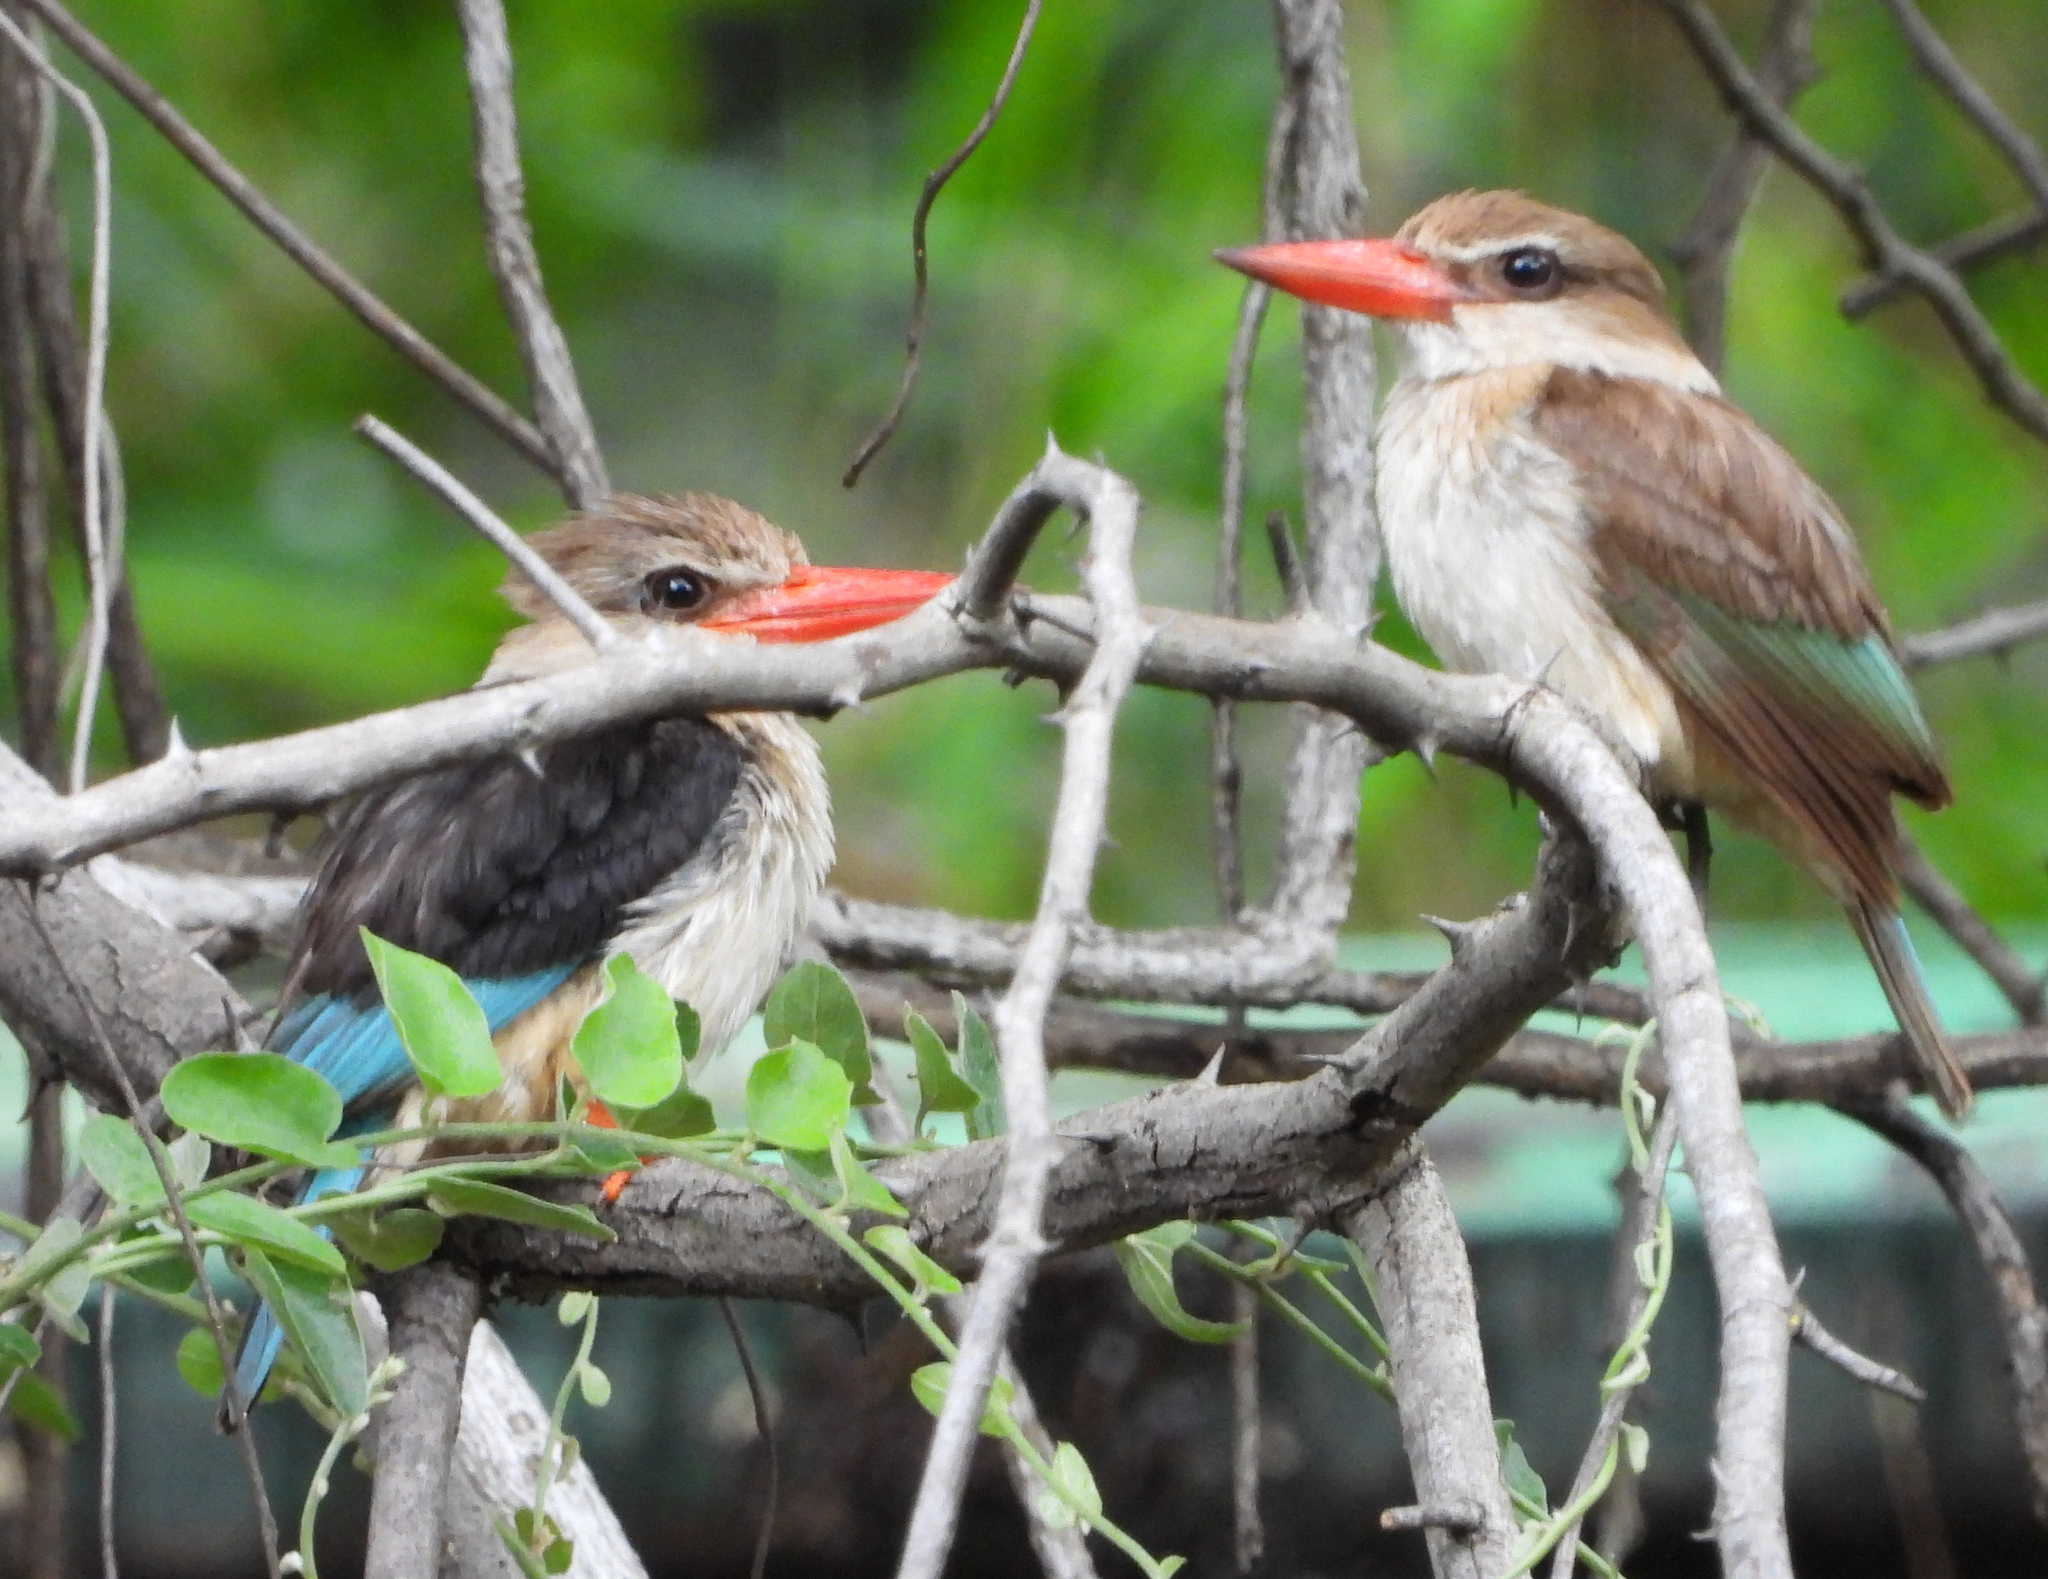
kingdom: Animalia
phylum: Chordata
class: Aves
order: Coraciiformes
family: Alcedinidae
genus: Halcyon
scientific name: Halcyon albiventris
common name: Brown-hooded kingfisher
